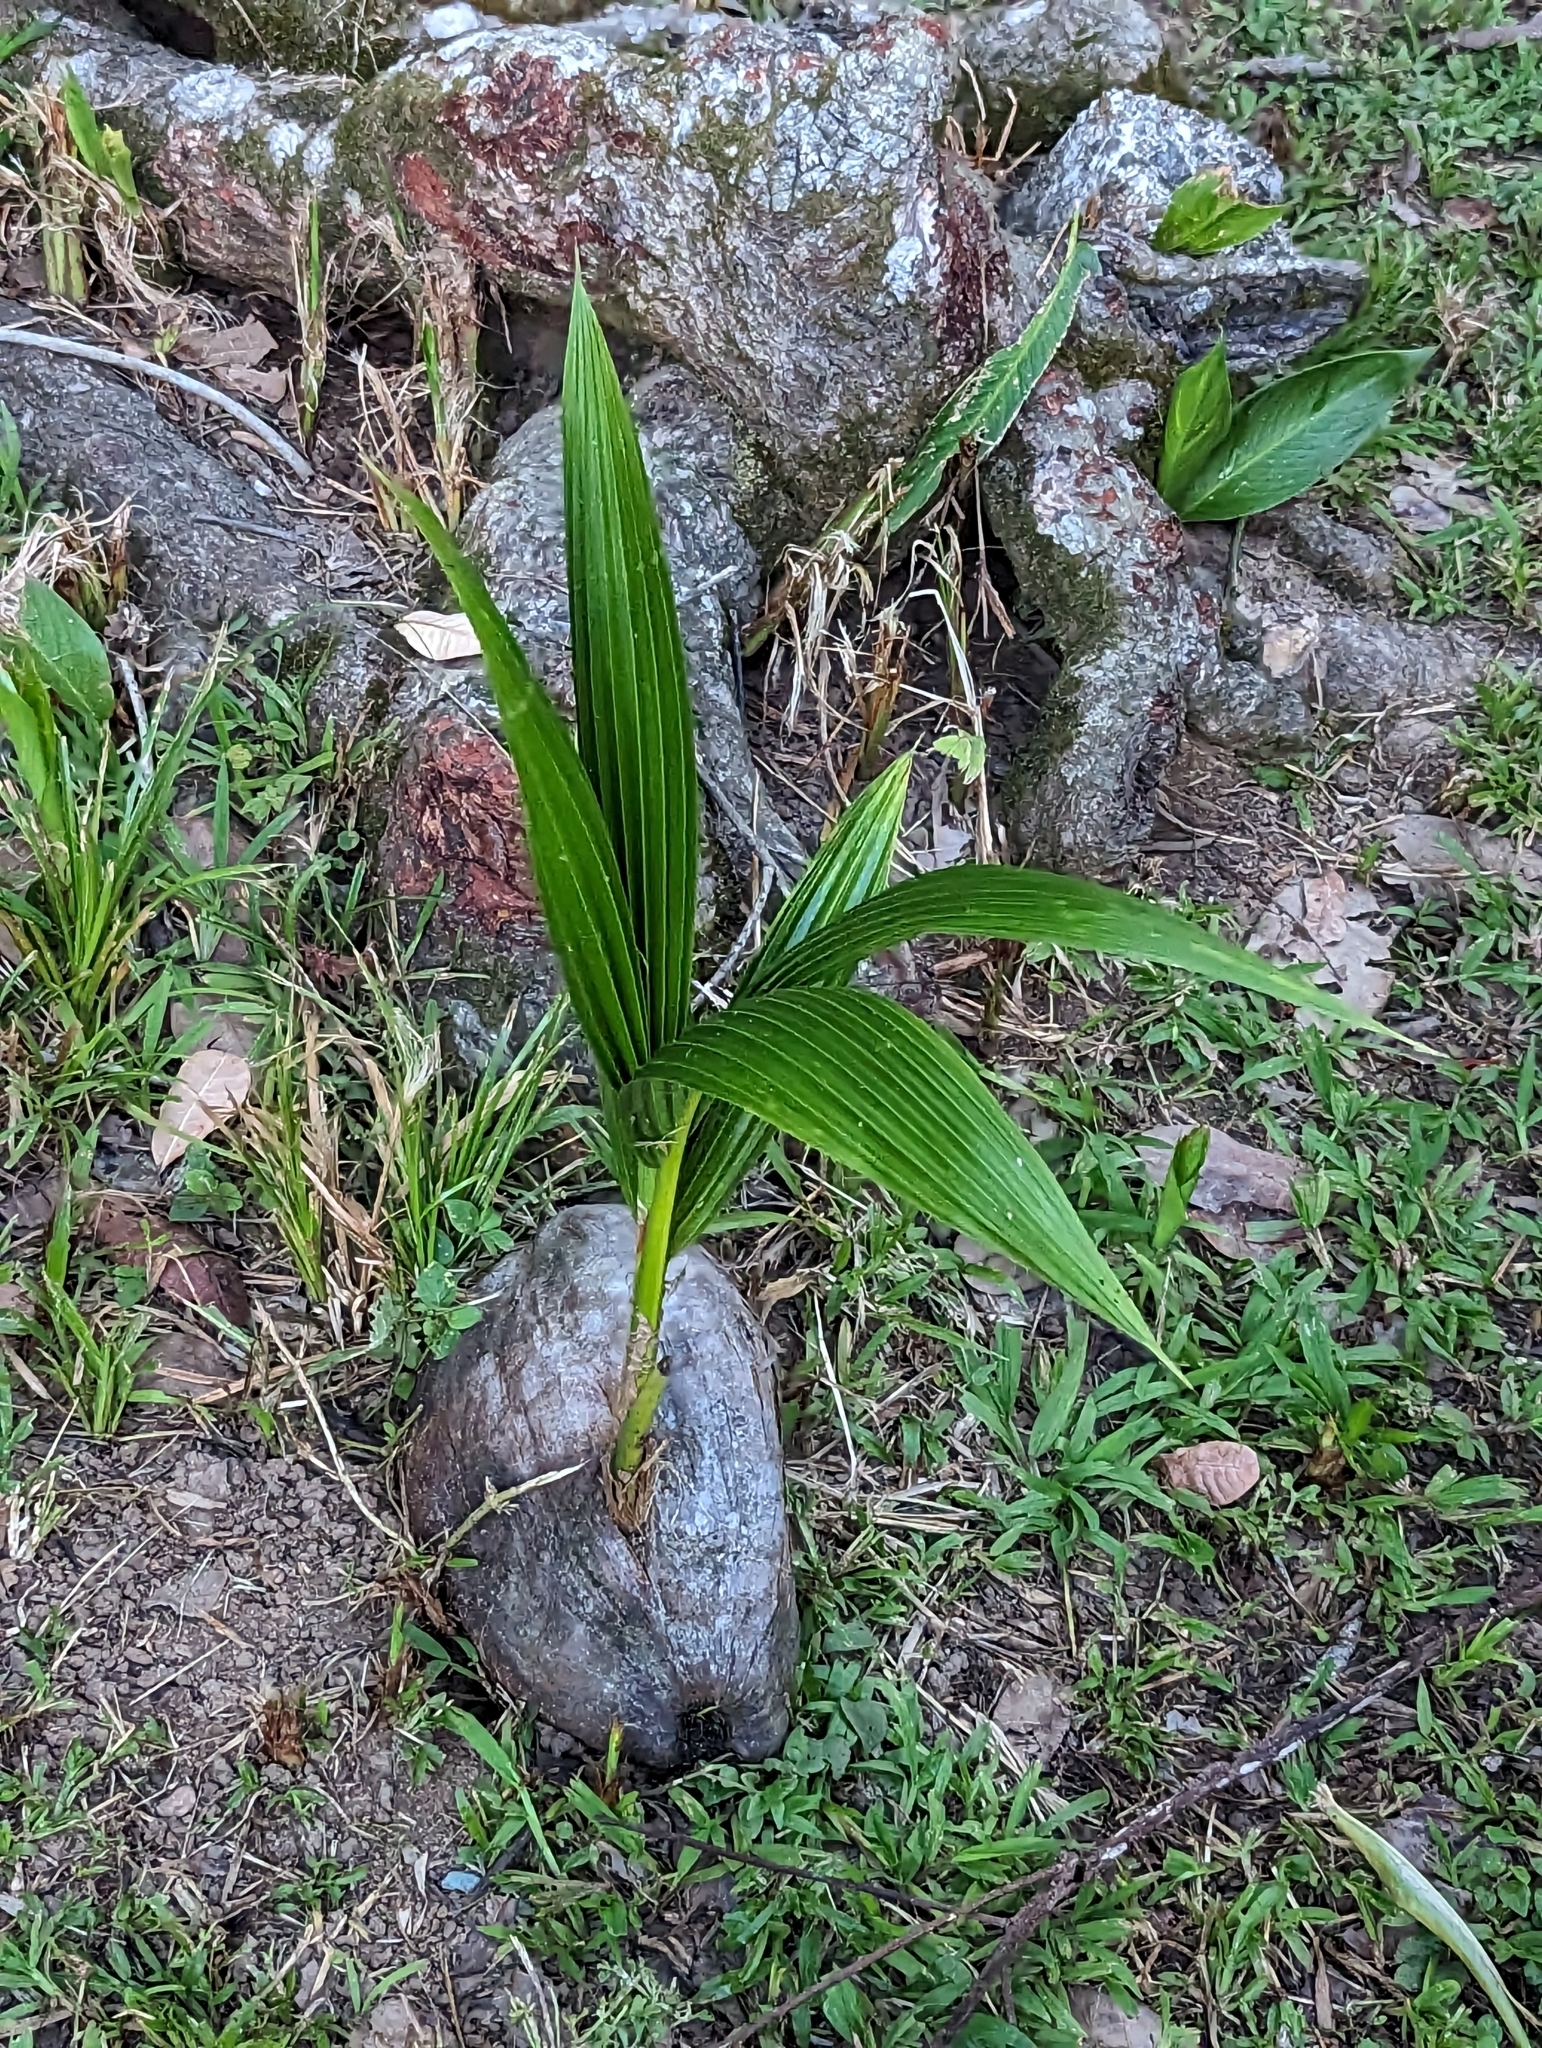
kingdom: Plantae
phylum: Tracheophyta
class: Liliopsida
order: Arecales
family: Arecaceae
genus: Cocos
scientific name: Cocos nucifera
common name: Coconut palm
